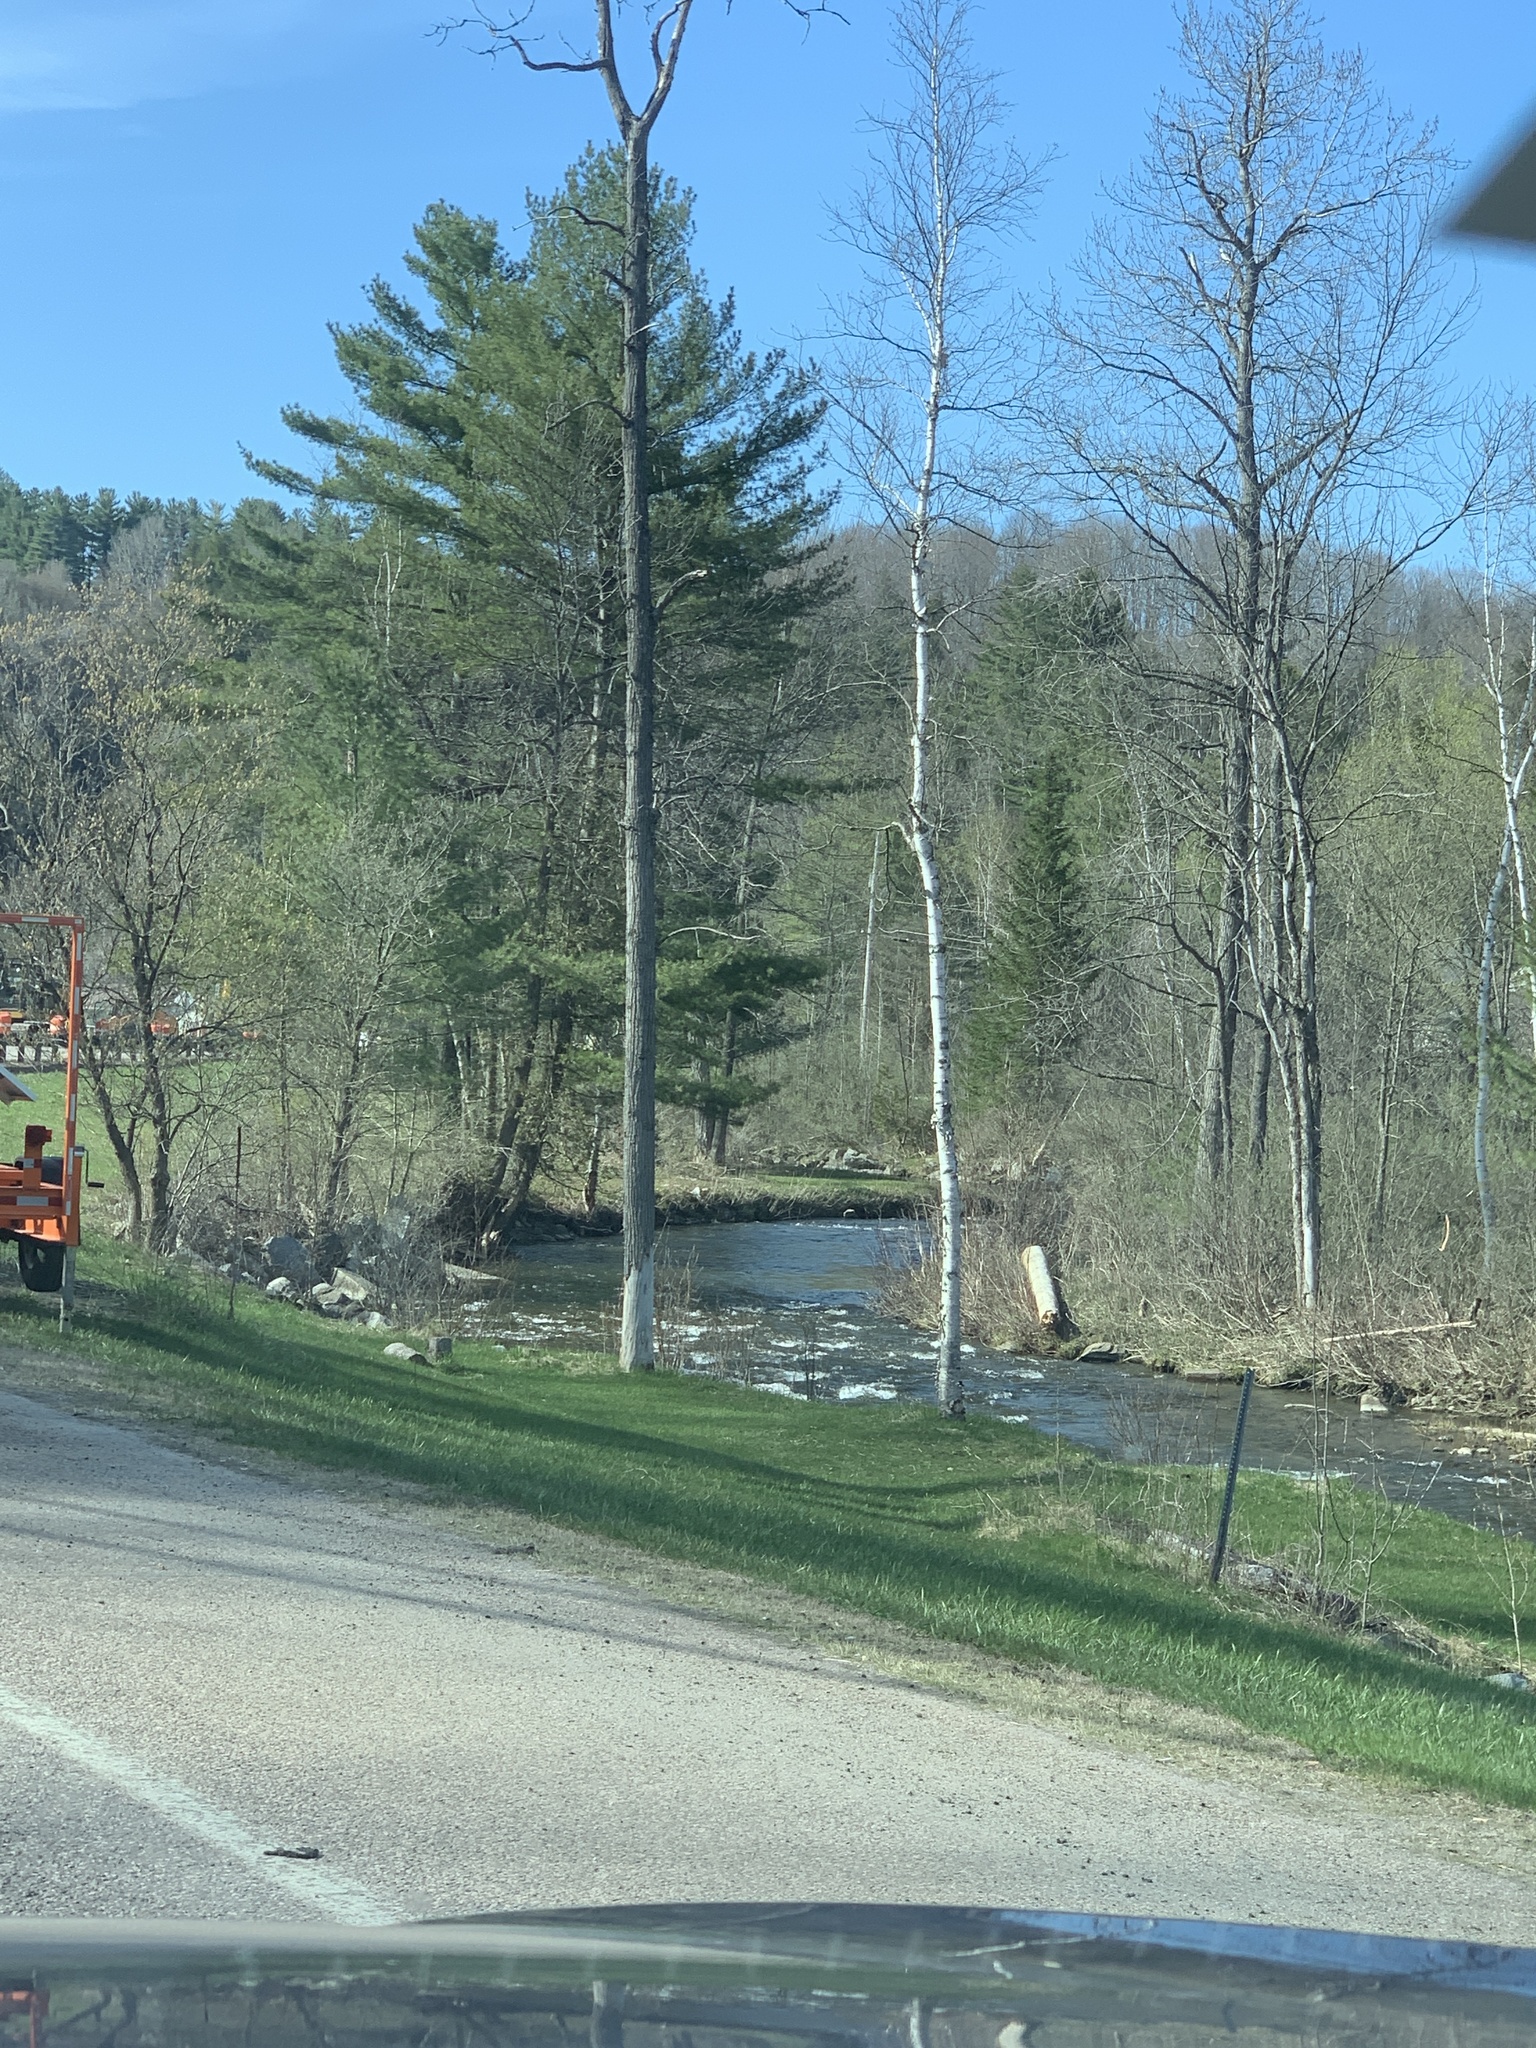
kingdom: Plantae
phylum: Tracheophyta
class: Pinopsida
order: Pinales
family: Pinaceae
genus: Pinus
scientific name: Pinus strobus
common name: Weymouth pine
